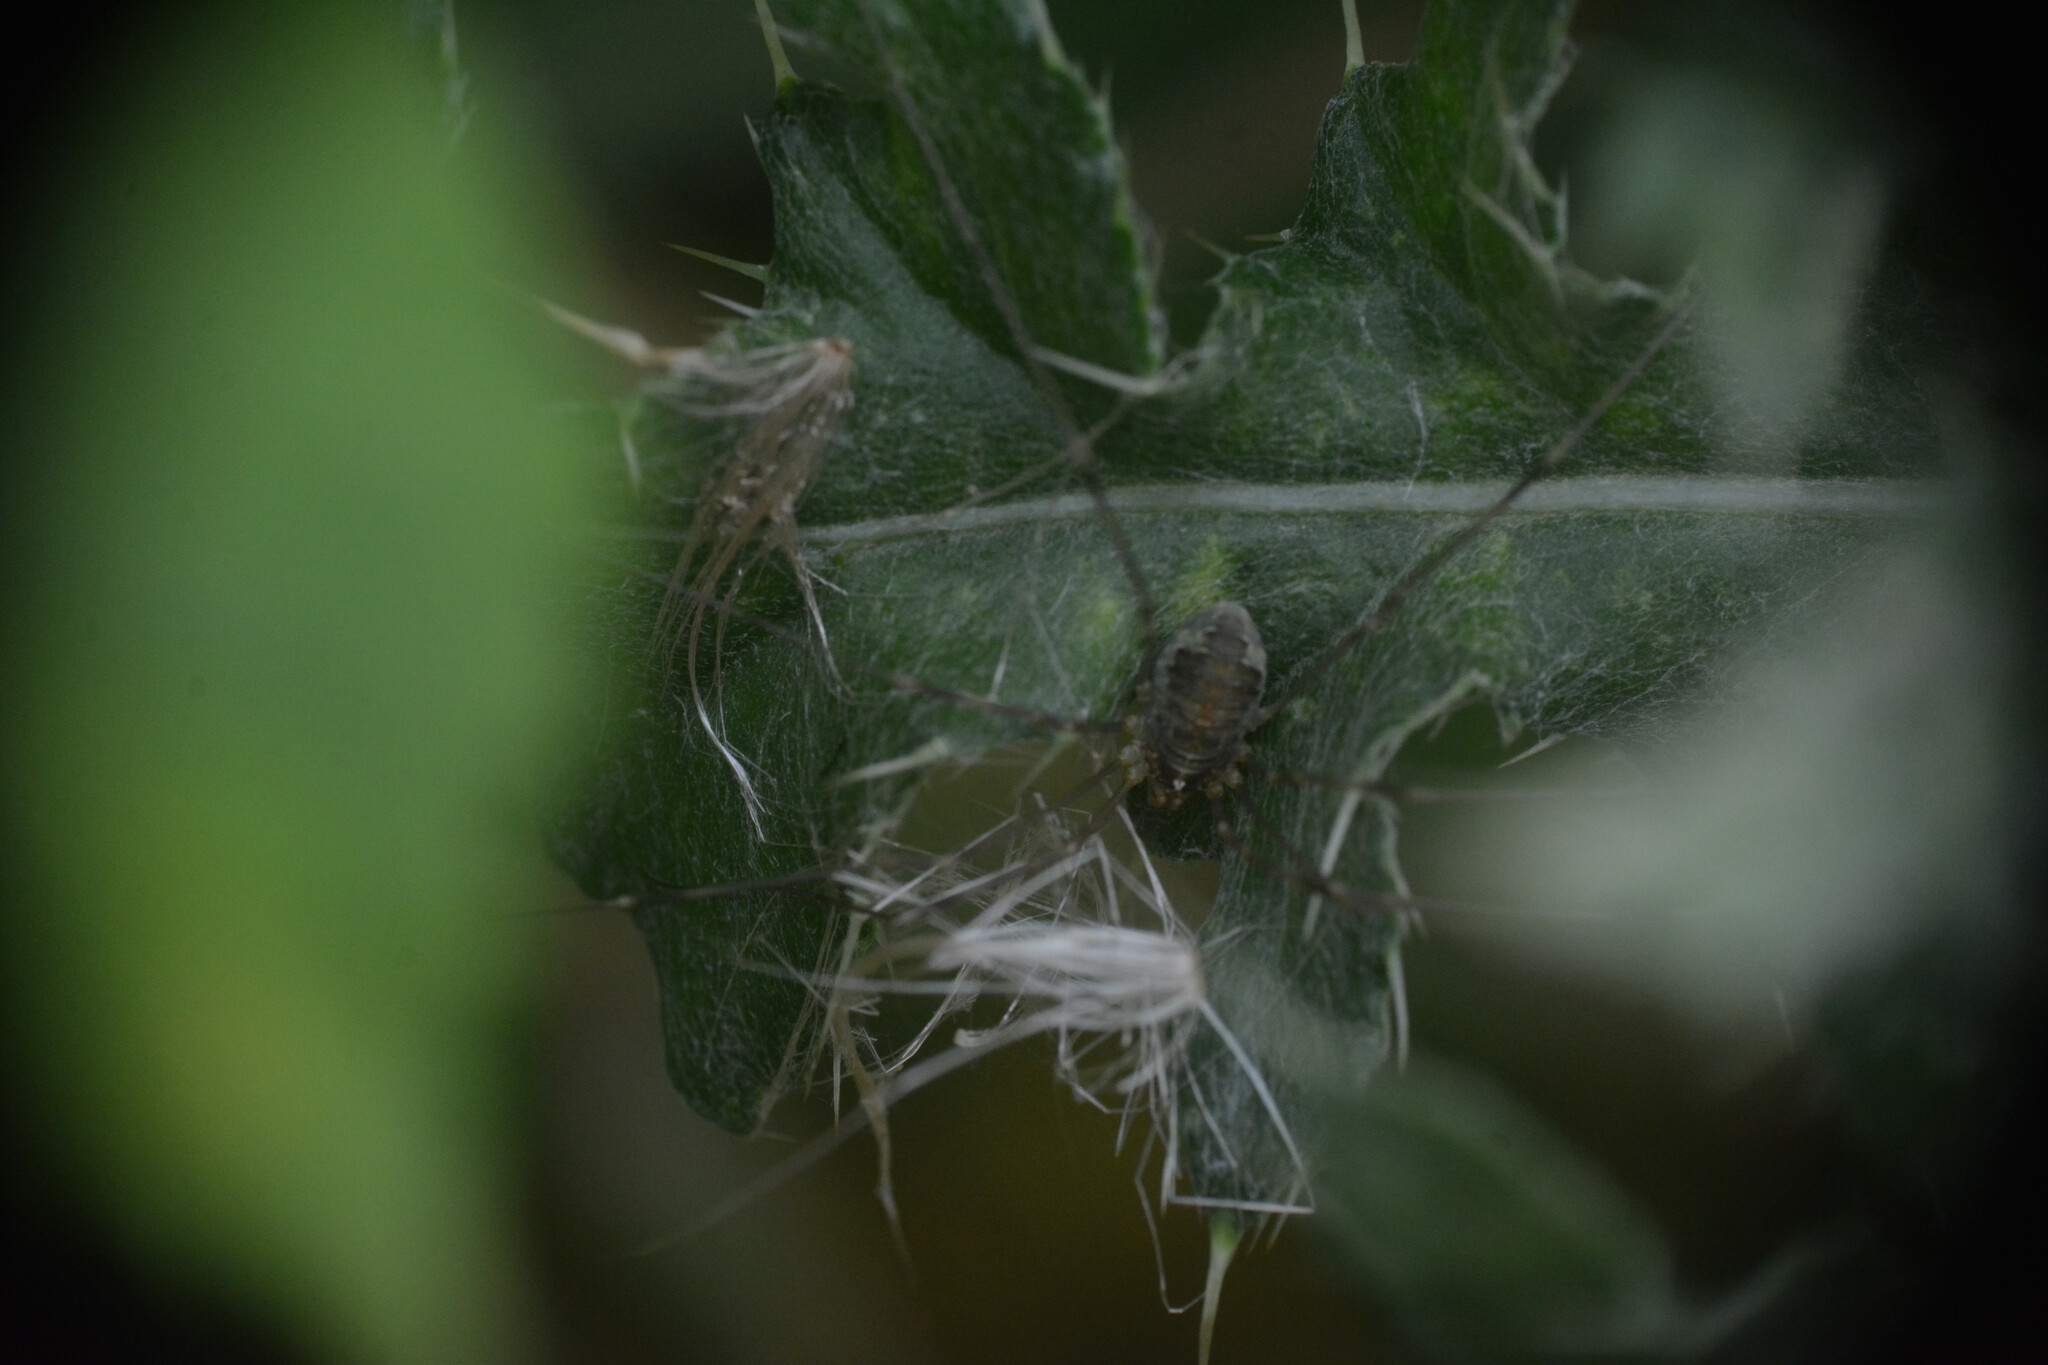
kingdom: Animalia
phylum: Arthropoda
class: Arachnida
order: Opiliones
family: Phalangiidae
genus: Opilio
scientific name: Opilio canestrinii
